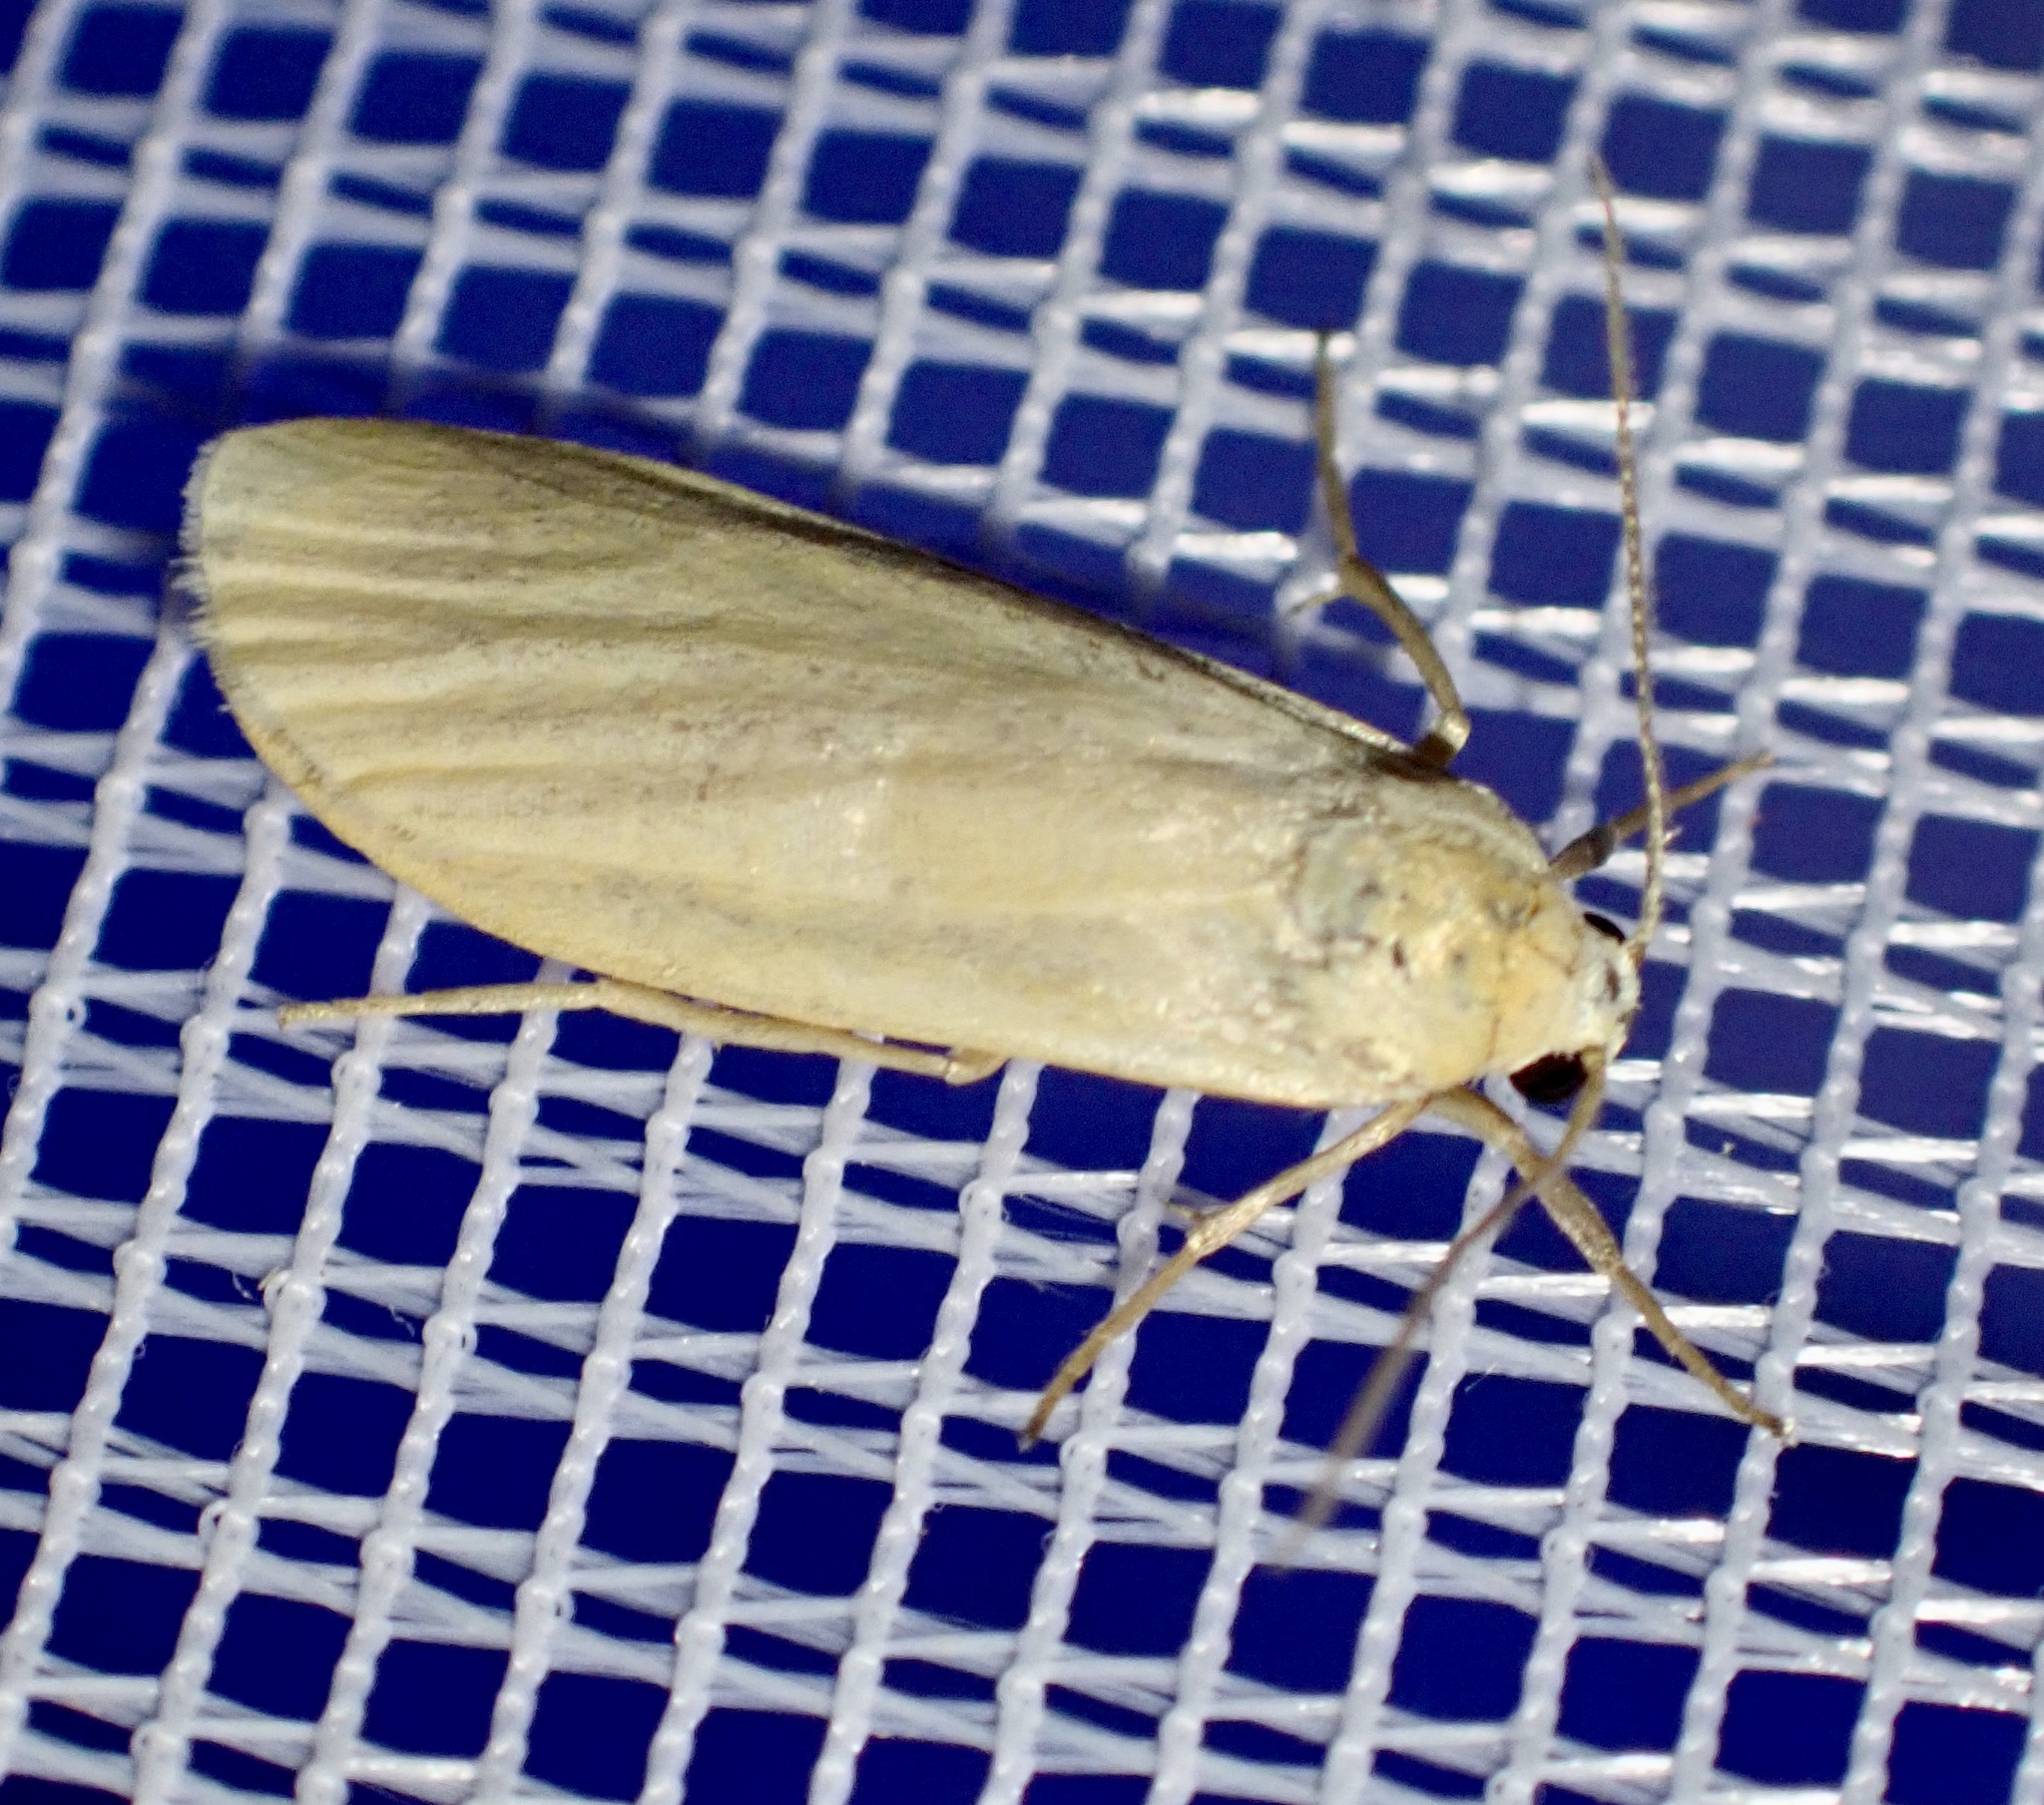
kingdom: Animalia
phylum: Arthropoda
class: Insecta
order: Lepidoptera
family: Erebidae
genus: Wittia
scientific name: Wittia sororcula
